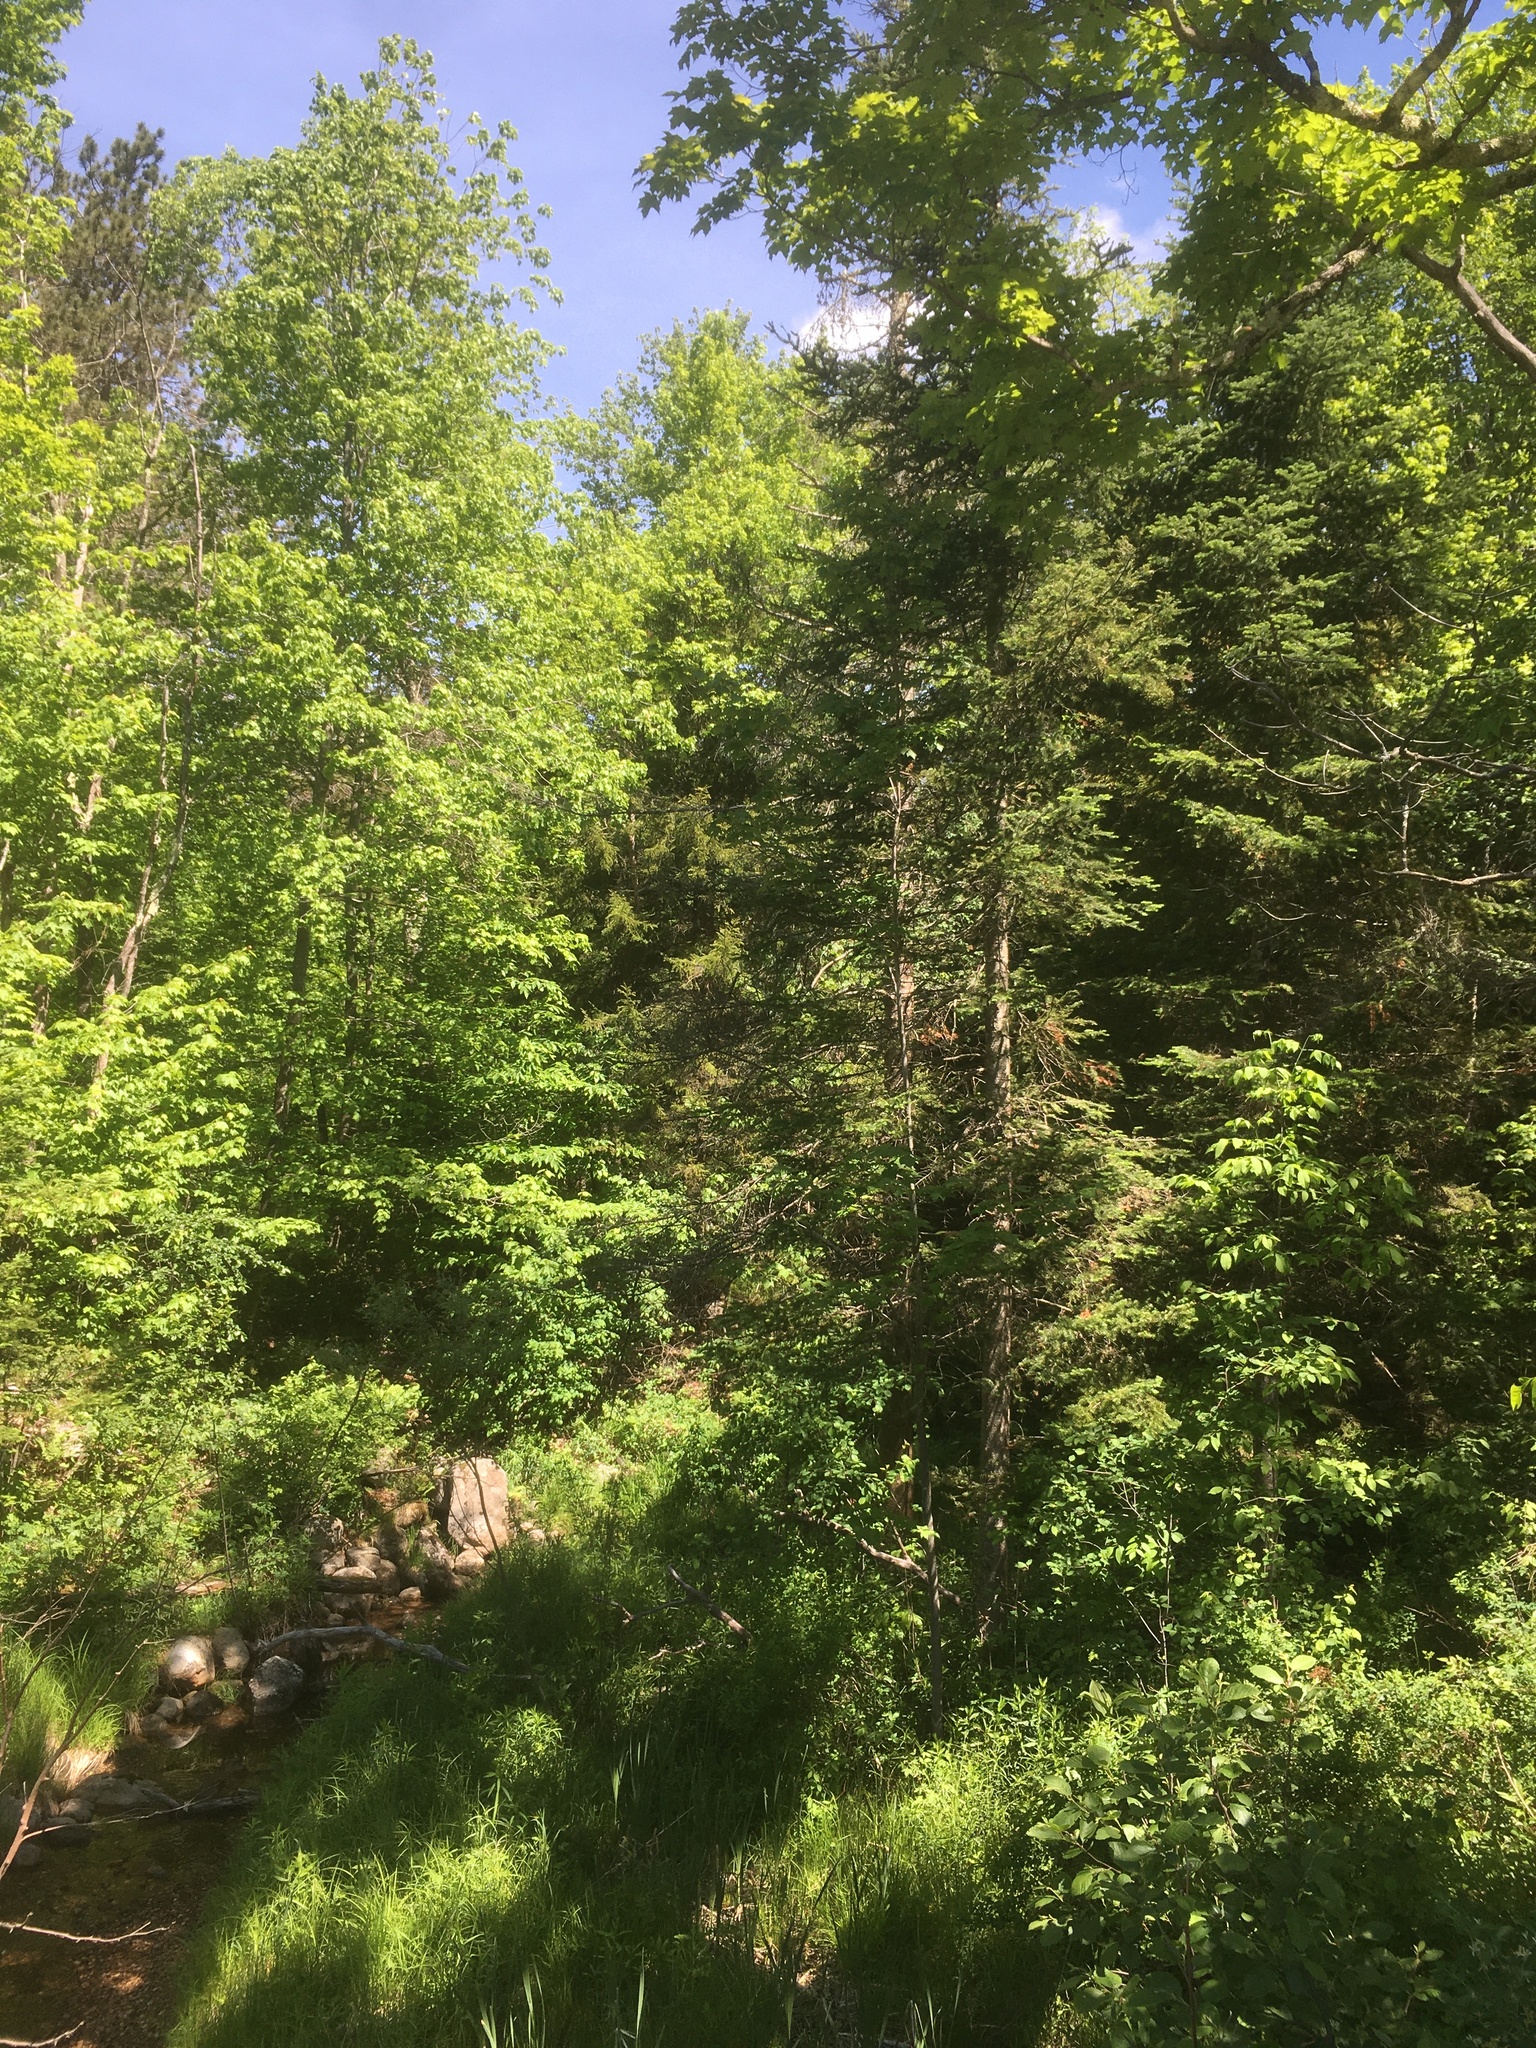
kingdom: Plantae
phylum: Tracheophyta
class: Pinopsida
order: Pinales
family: Pinaceae
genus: Abies
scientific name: Abies balsamea
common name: Balsam fir
